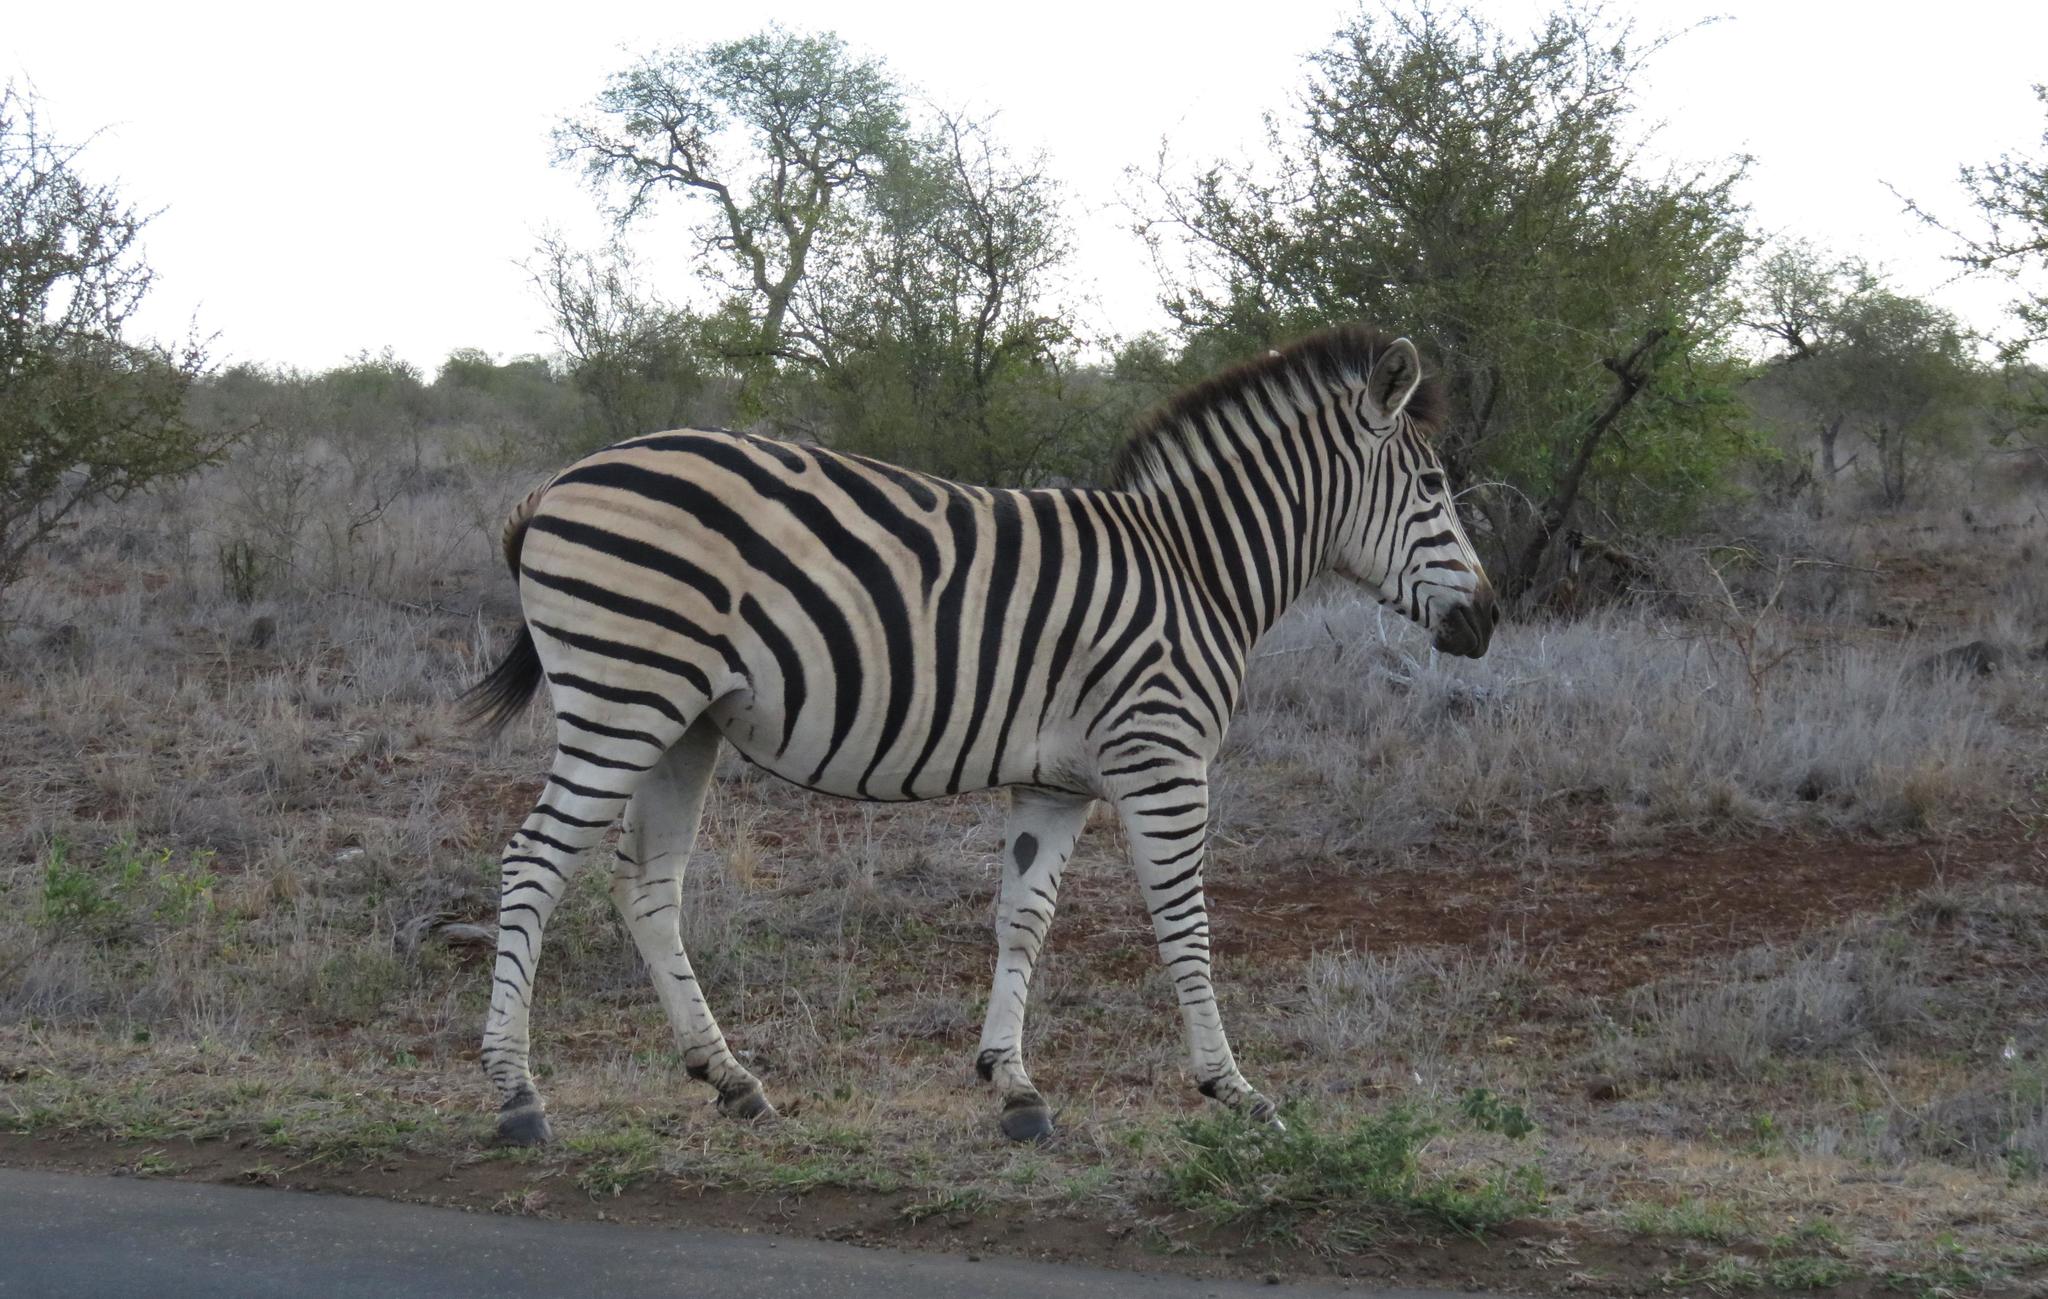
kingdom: Animalia
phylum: Chordata
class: Mammalia
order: Perissodactyla
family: Equidae
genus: Equus
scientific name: Equus quagga
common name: Plains zebra
